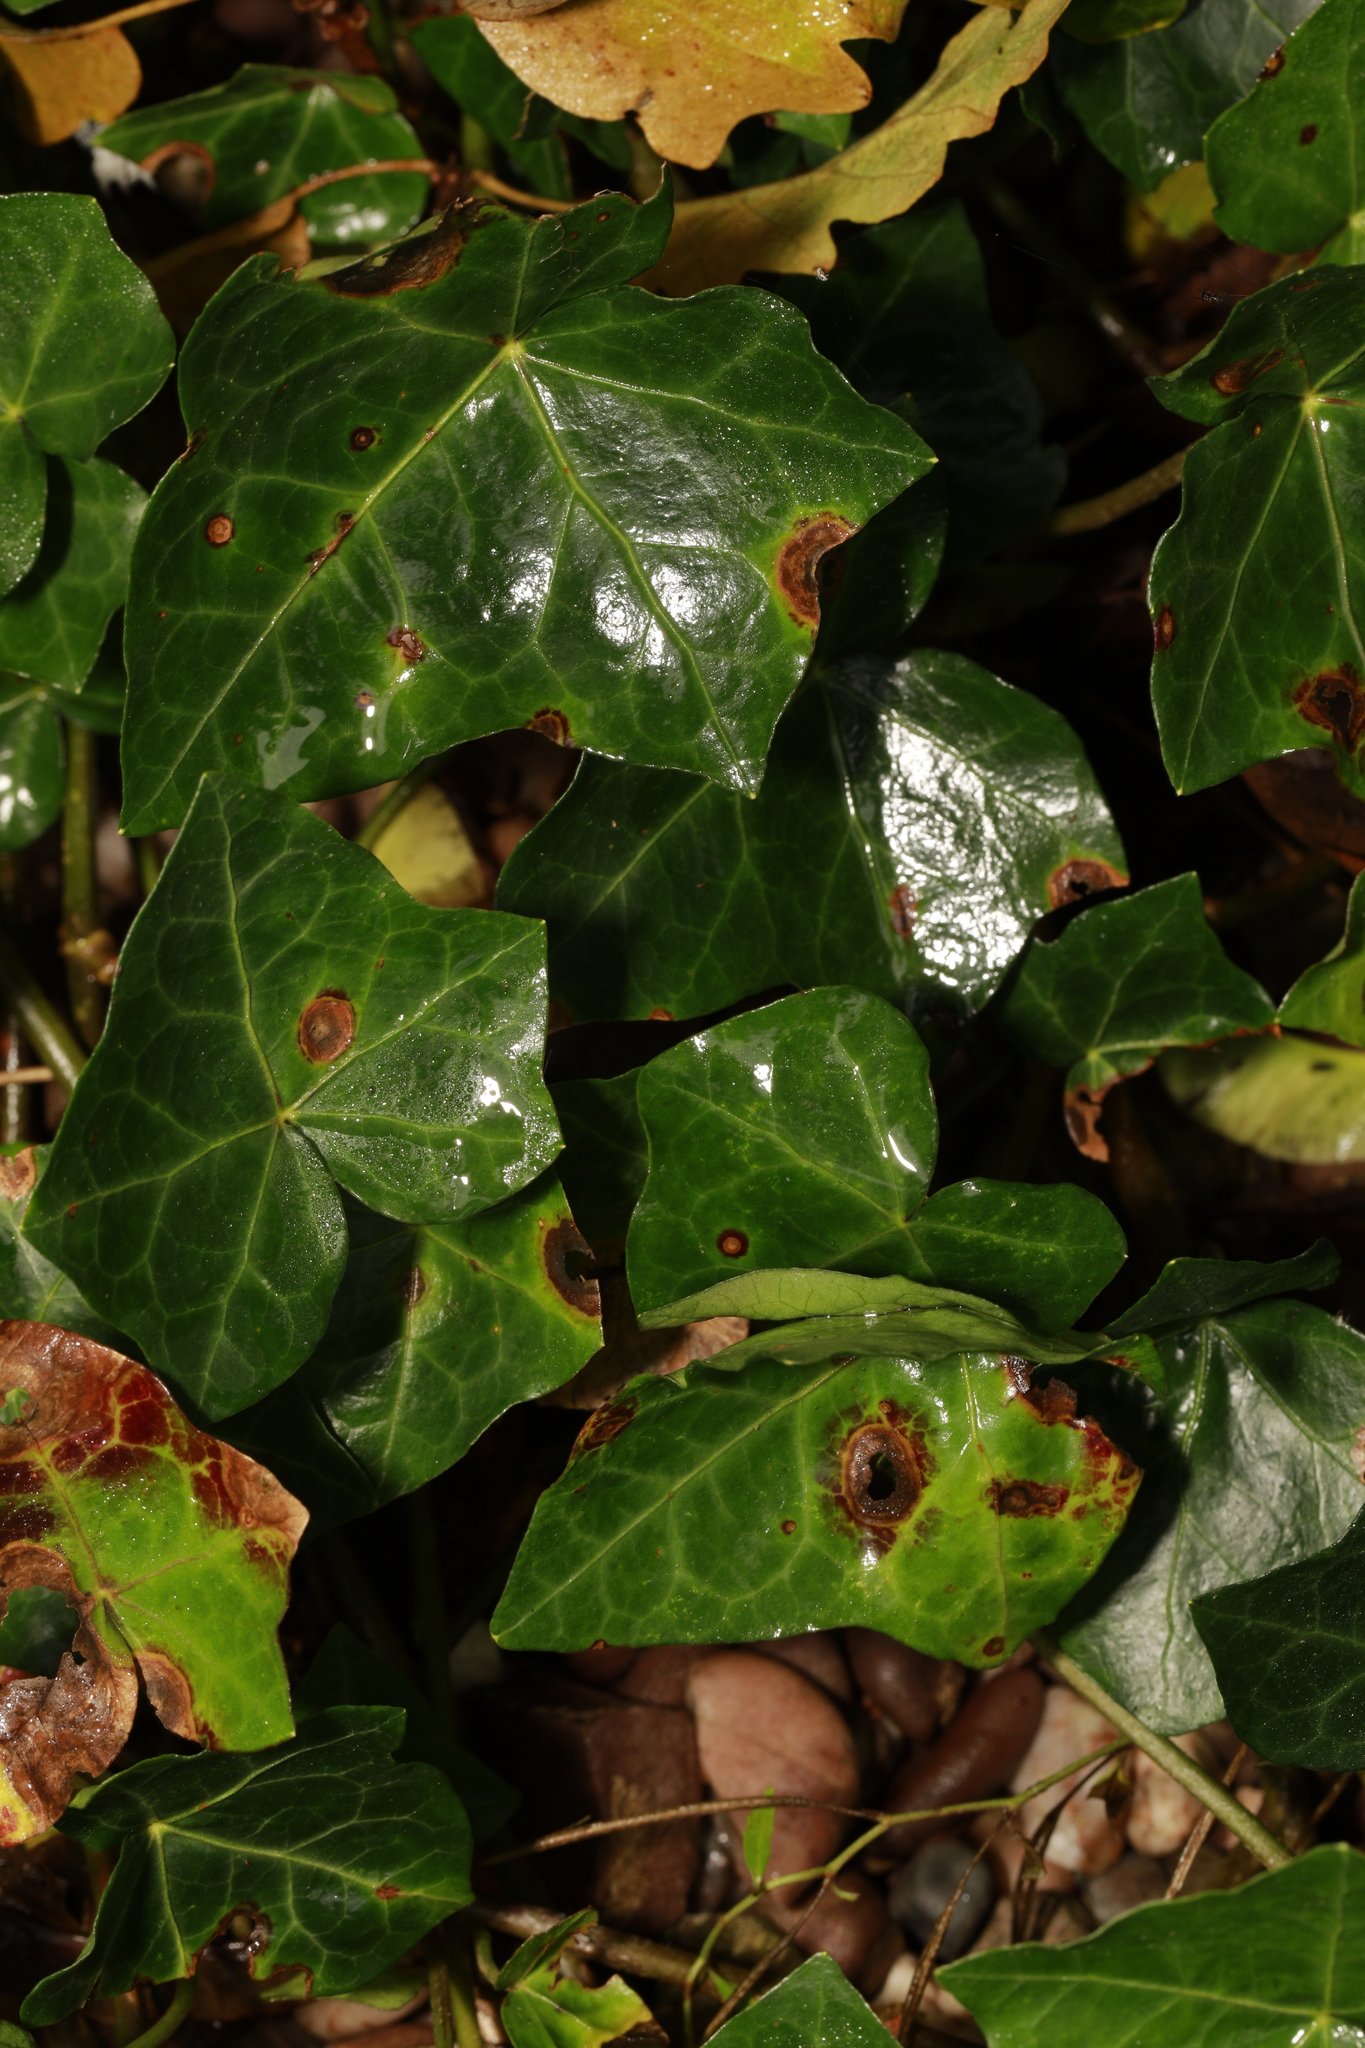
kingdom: Plantae
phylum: Tracheophyta
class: Magnoliopsida
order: Apiales
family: Araliaceae
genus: Hedera
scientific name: Hedera helix
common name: Ivy
